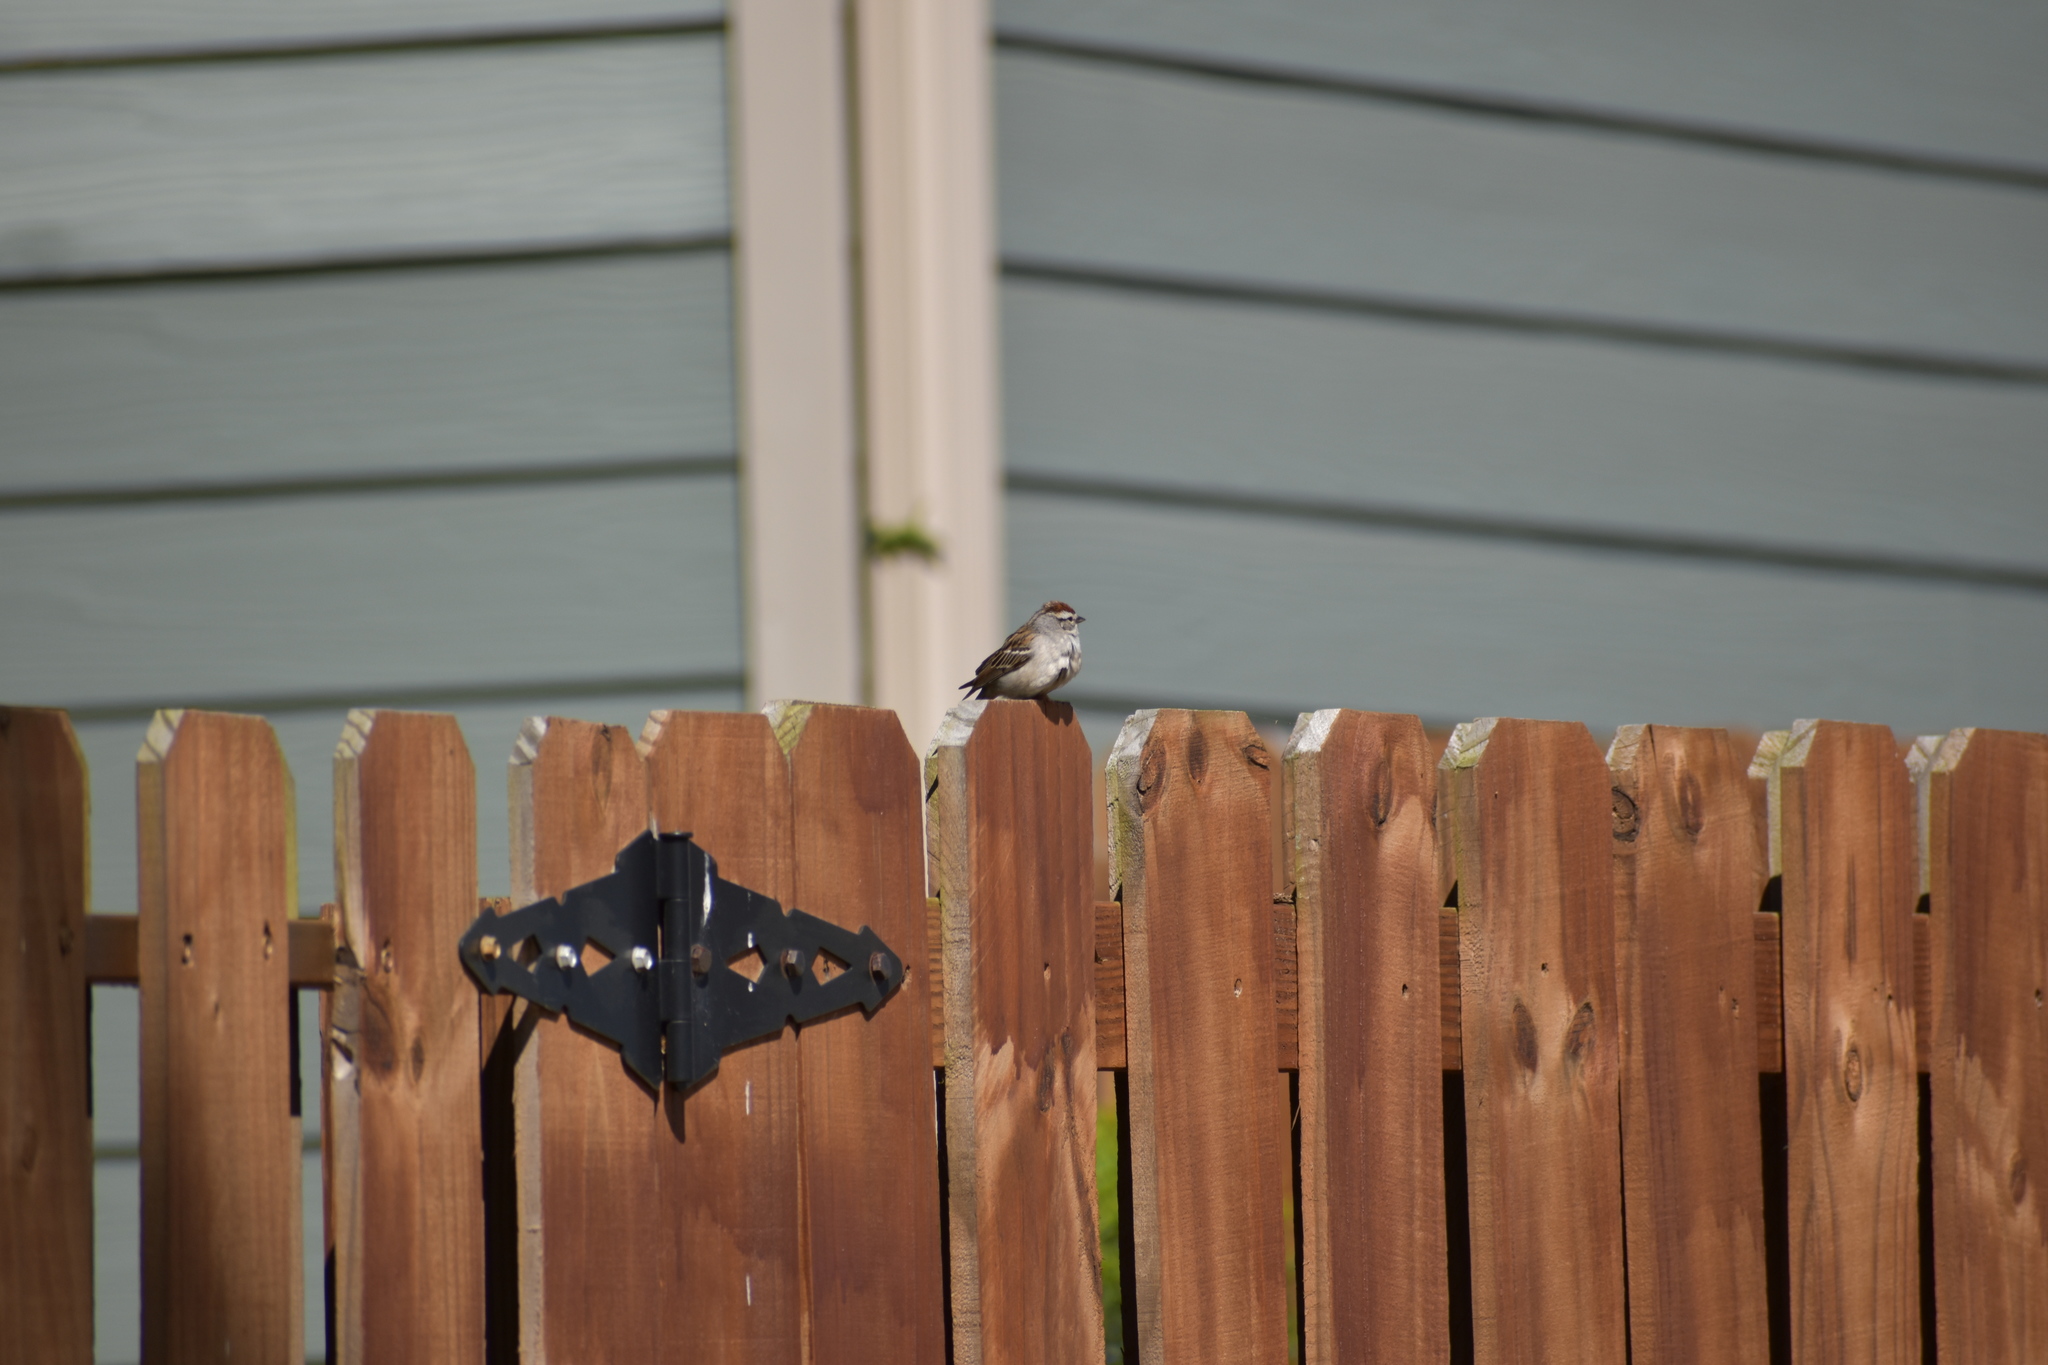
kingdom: Animalia
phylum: Chordata
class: Aves
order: Passeriformes
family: Passerellidae
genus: Spizella
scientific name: Spizella passerina
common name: Chipping sparrow
